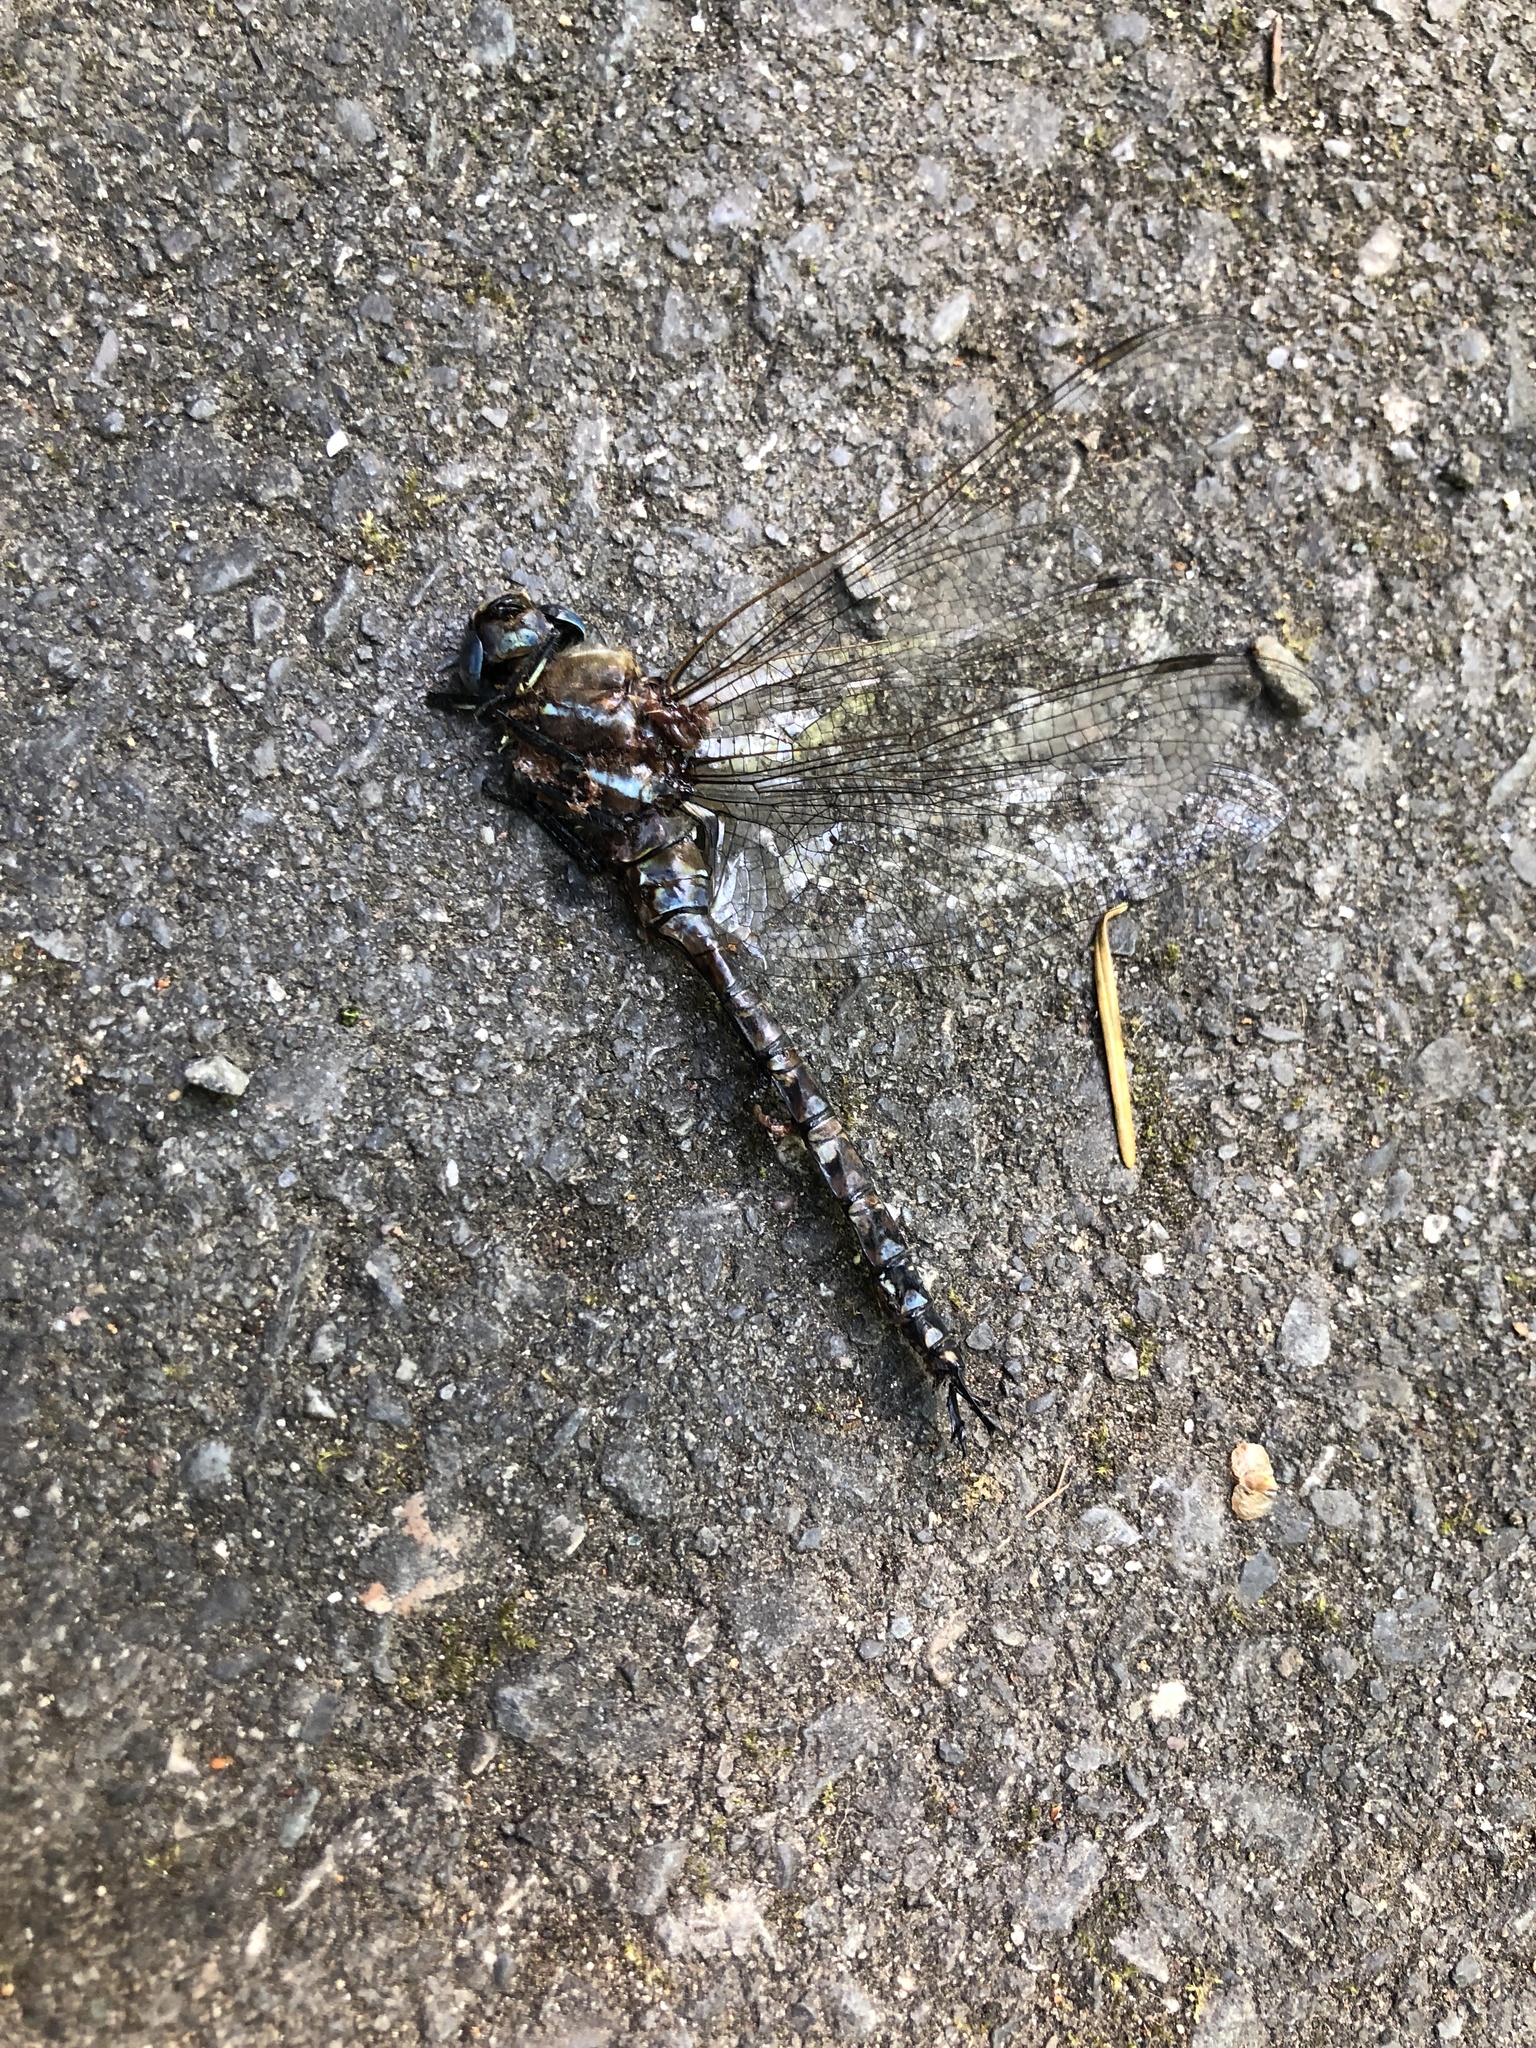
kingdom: Animalia
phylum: Arthropoda
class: Insecta
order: Odonata
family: Aeshnidae
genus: Rhionaeschna
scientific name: Rhionaeschna multicolor
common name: Blue-eyed darner
